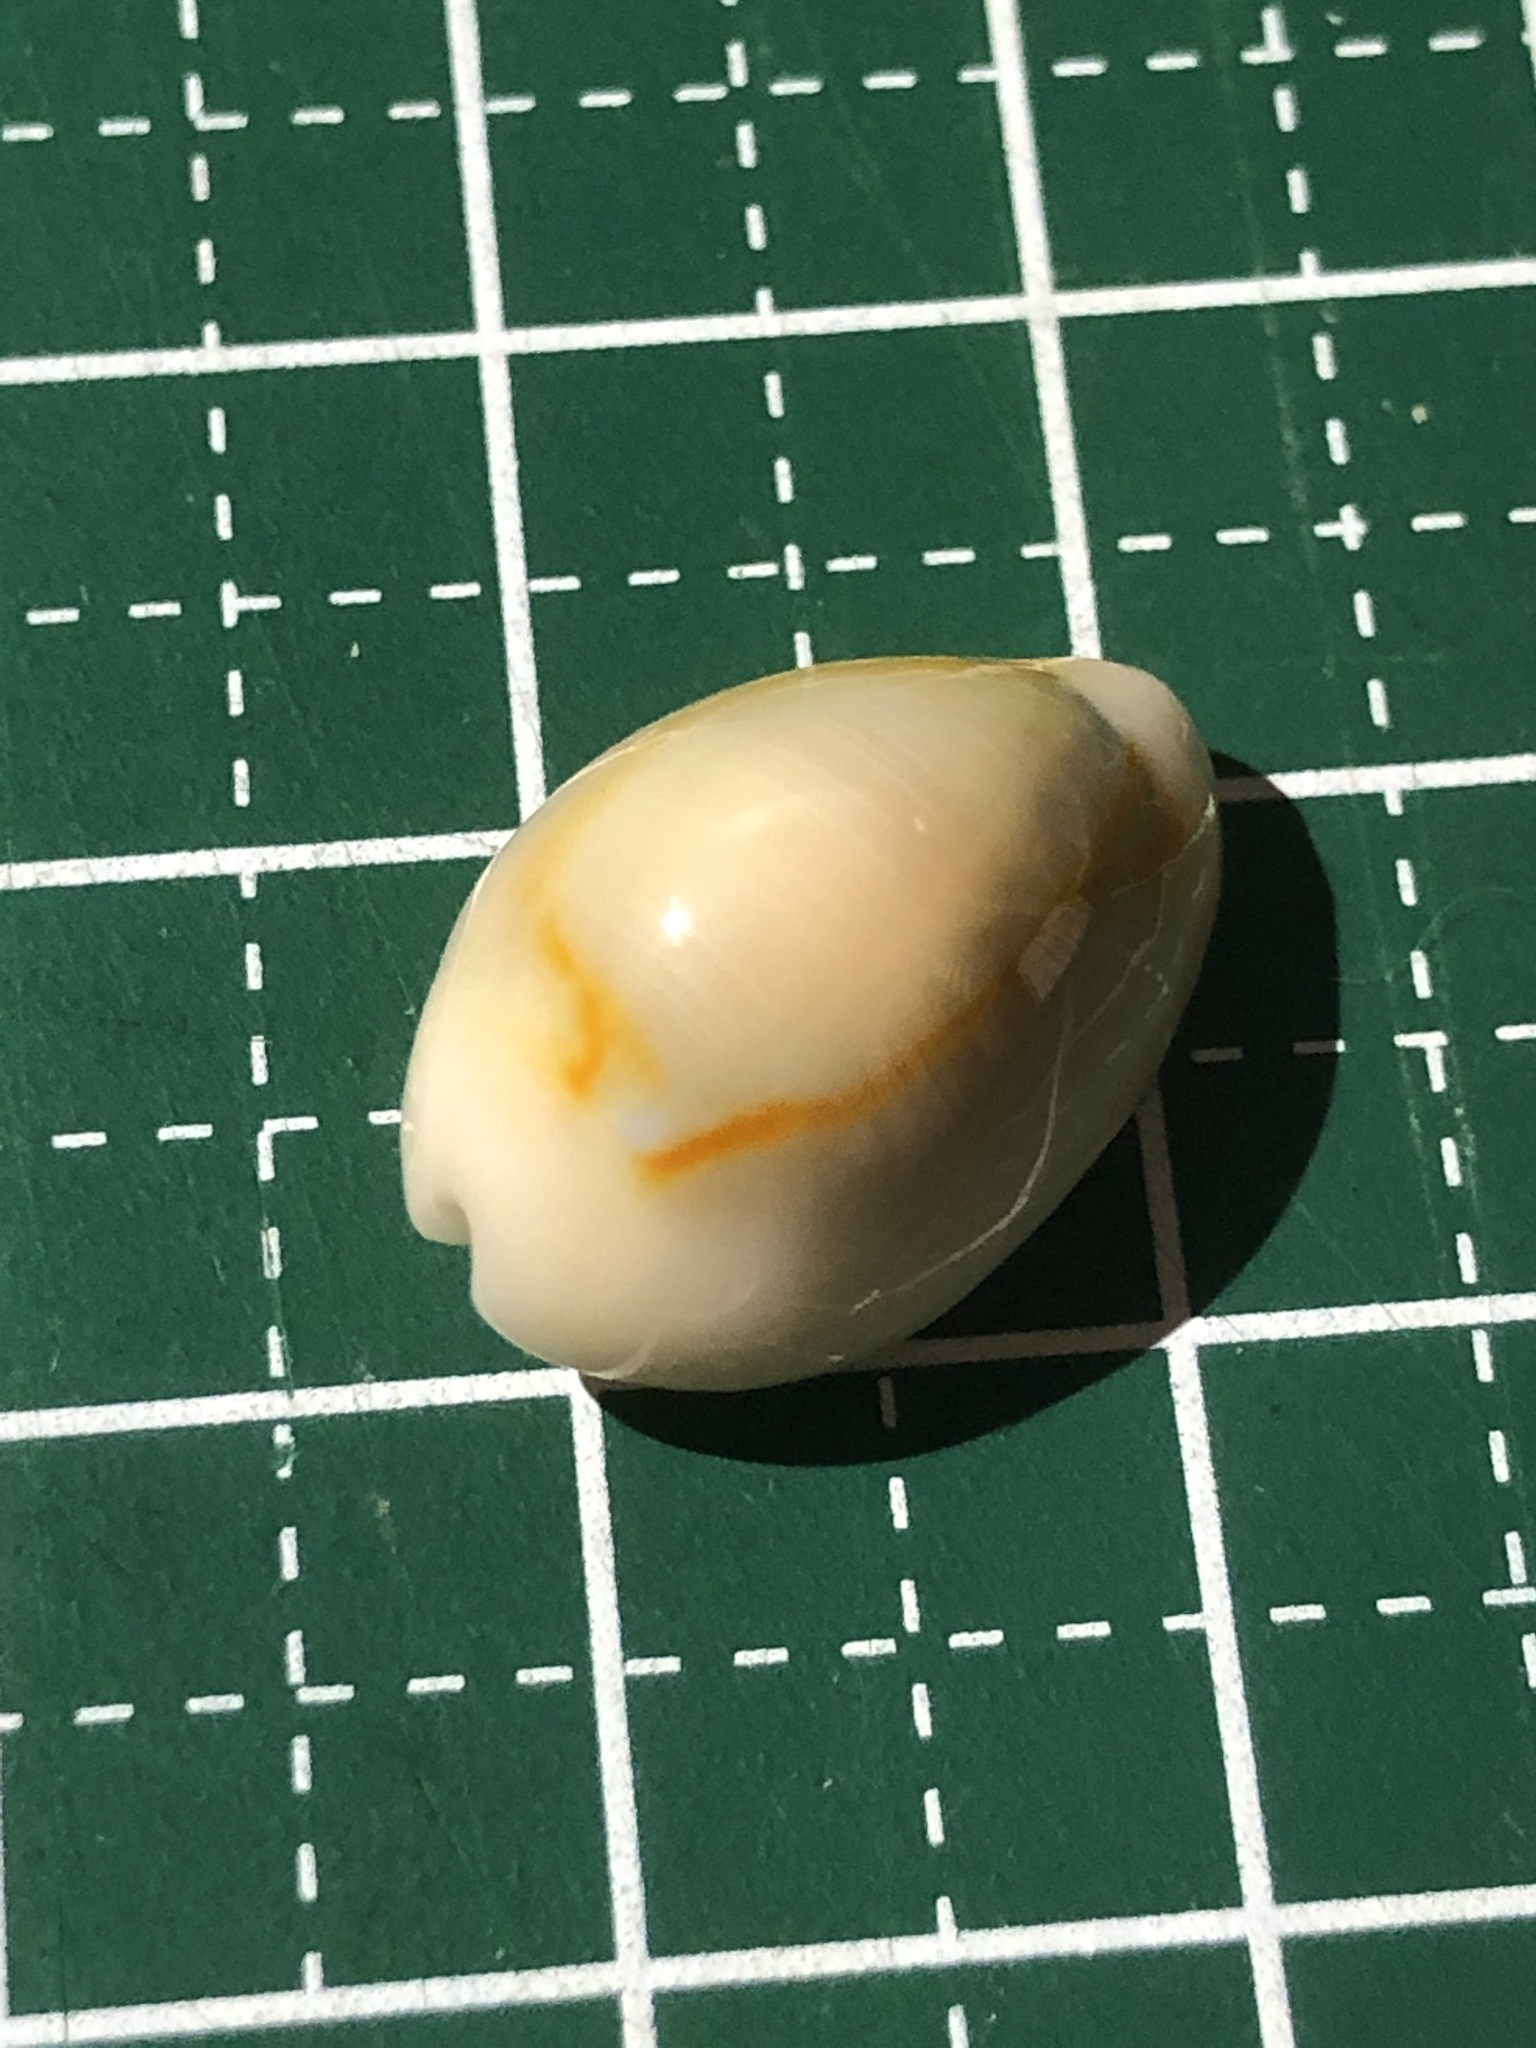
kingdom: Animalia
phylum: Mollusca
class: Gastropoda
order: Littorinimorpha
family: Cypraeidae
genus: Monetaria
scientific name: Monetaria annulus
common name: Ring cowrie
